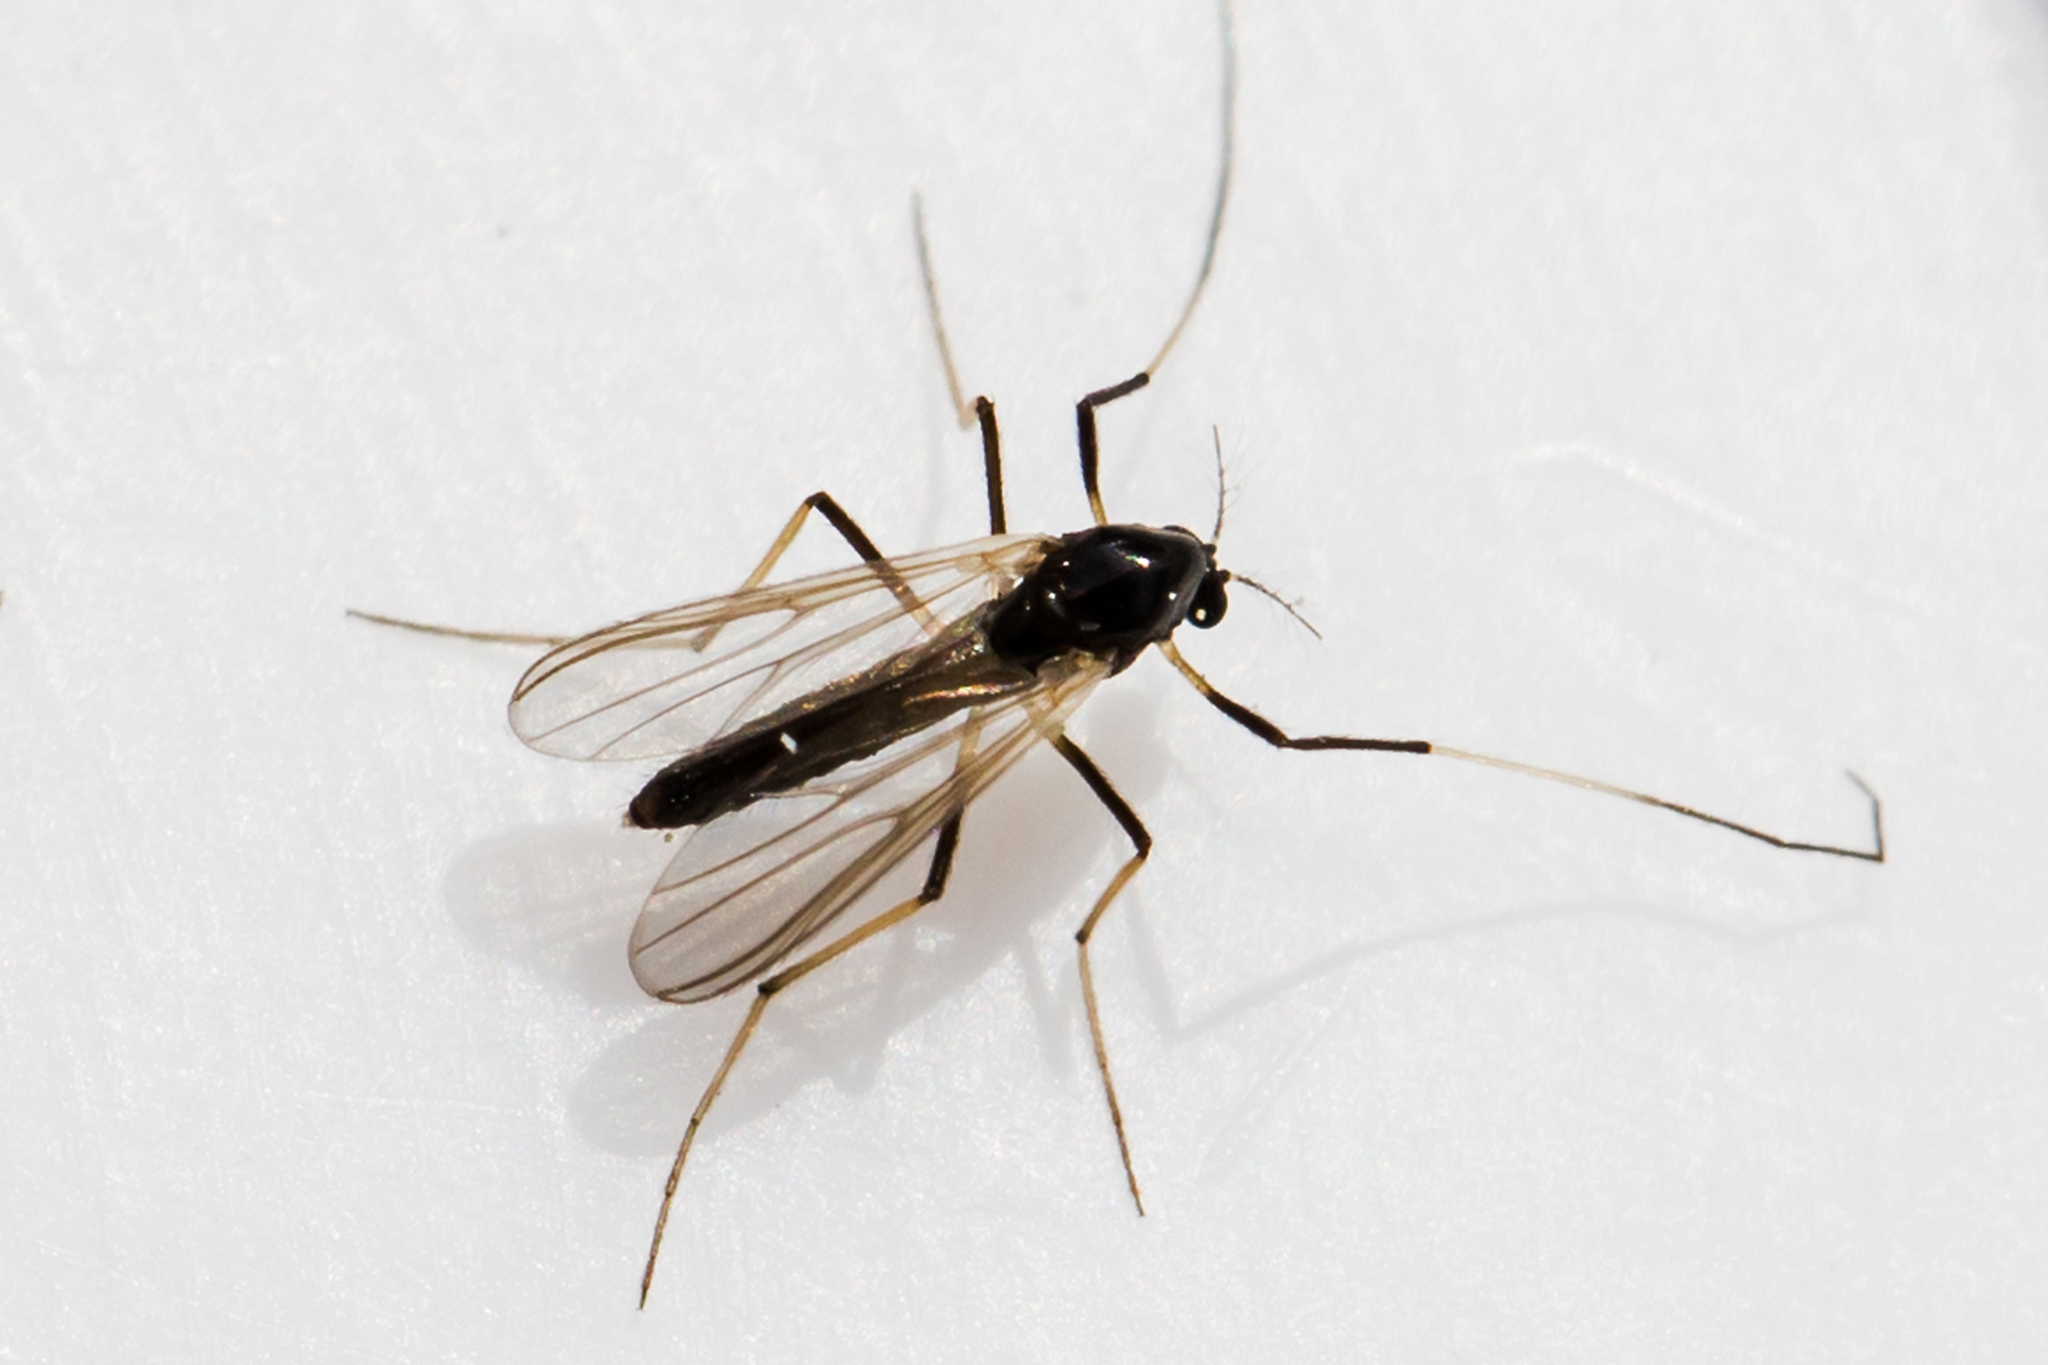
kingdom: Animalia
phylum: Arthropoda
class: Insecta
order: Diptera
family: Chironomidae
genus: Paratendipes
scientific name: Paratendipes albimanus
